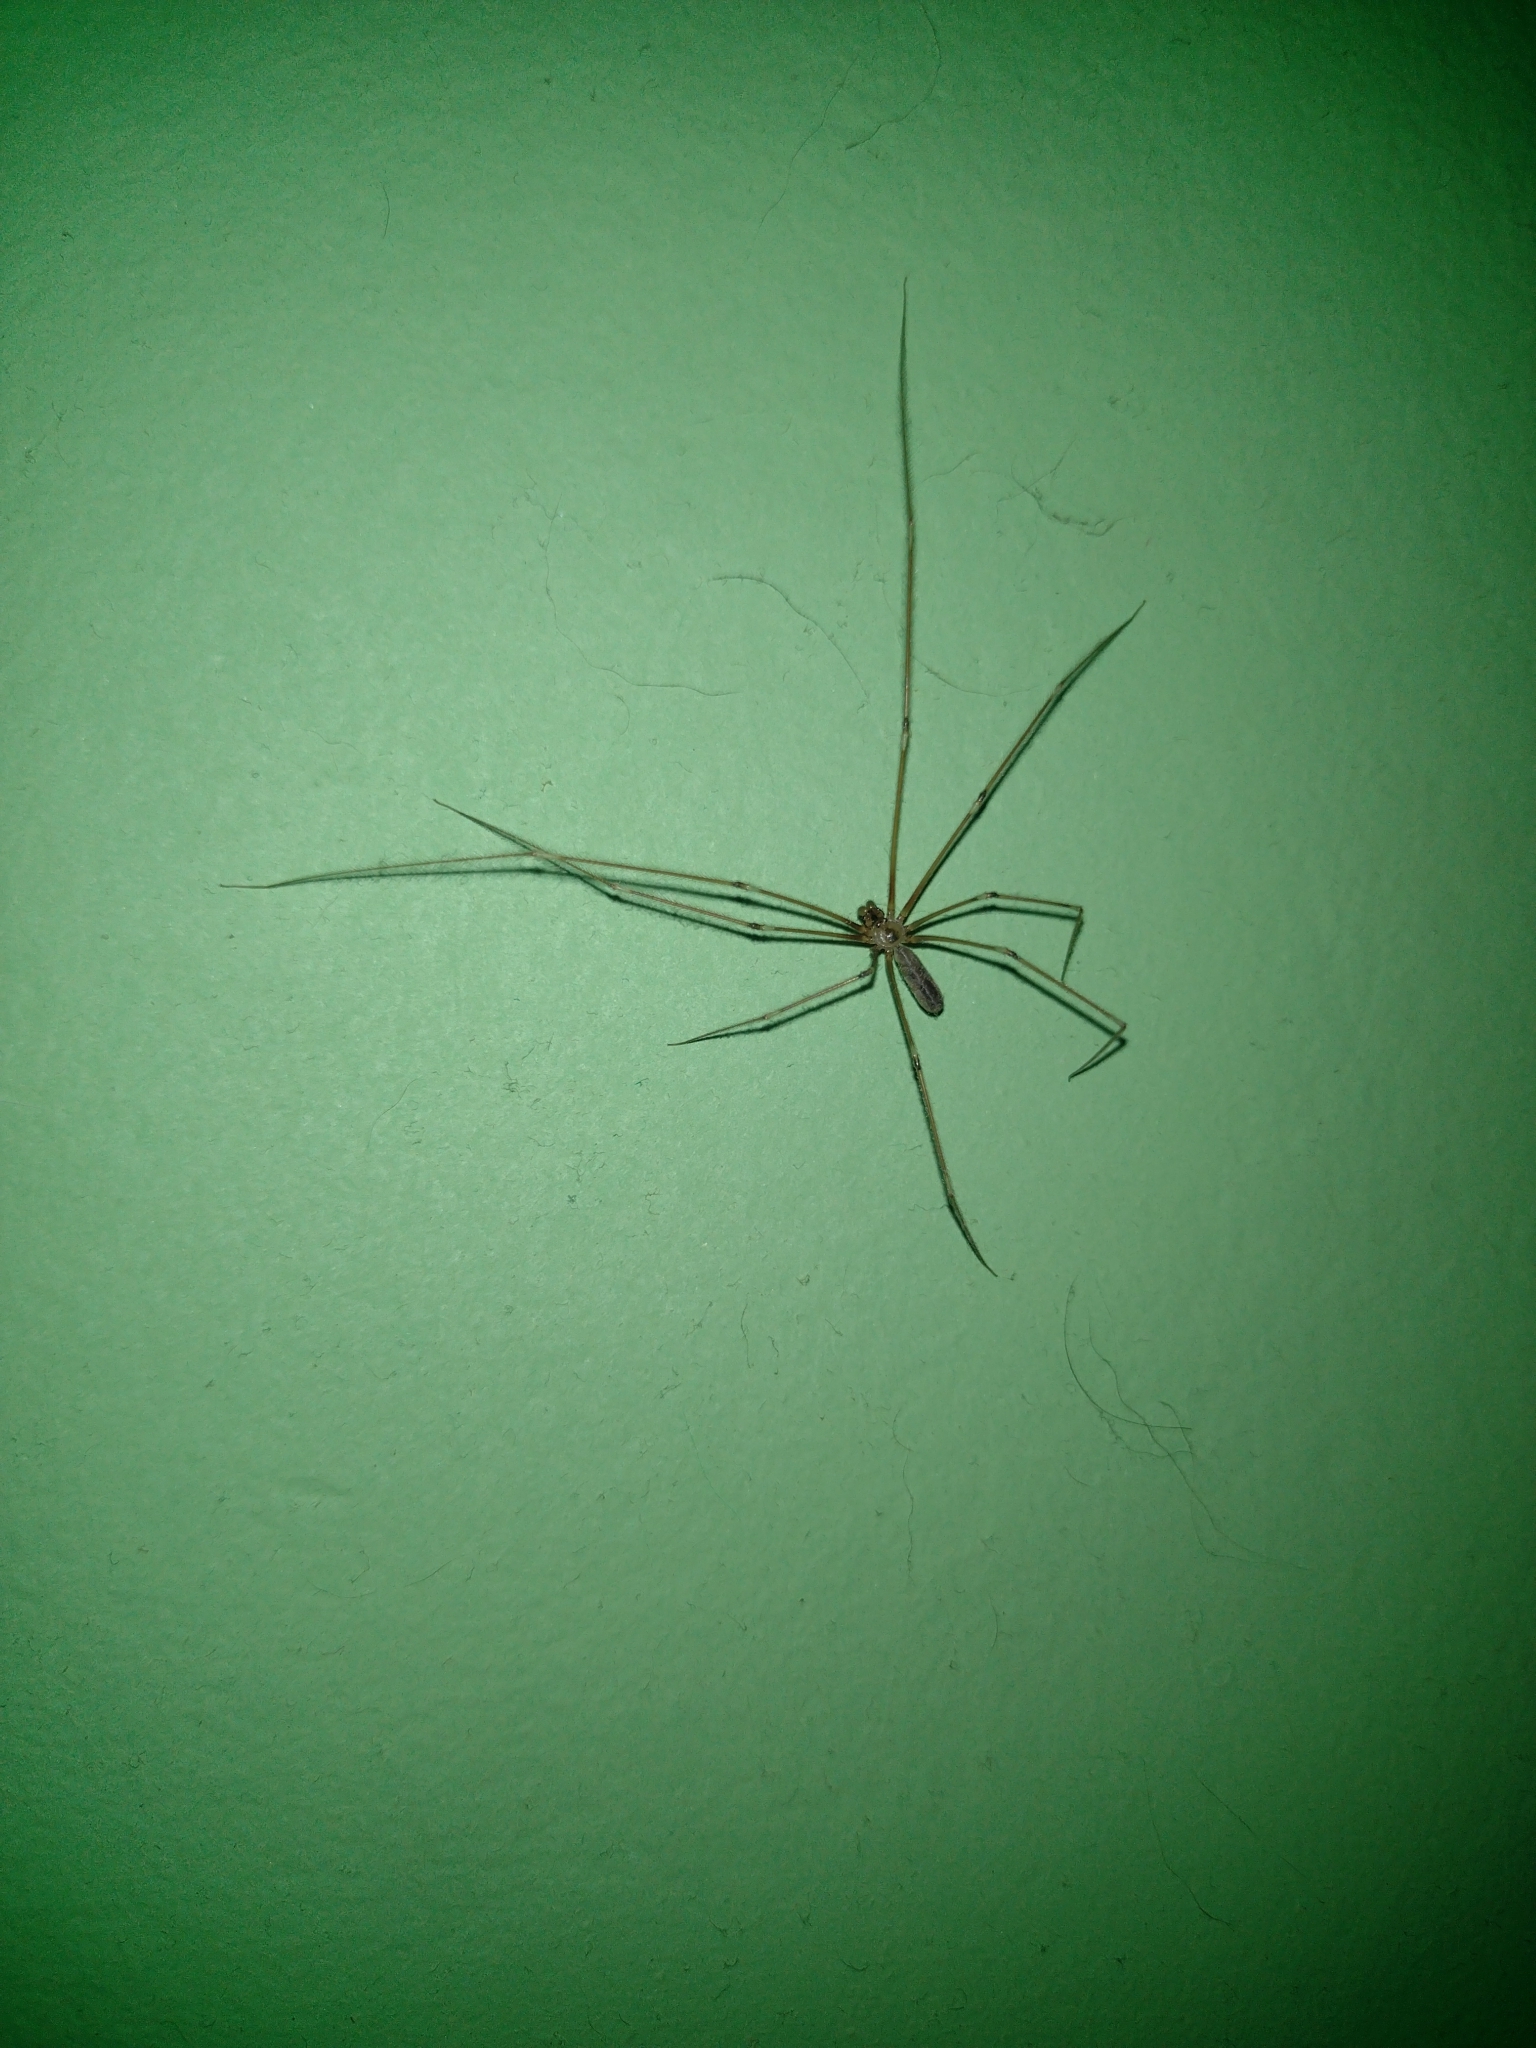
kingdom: Animalia
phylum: Arthropoda
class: Arachnida
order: Araneae
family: Pholcidae
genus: Pholcus
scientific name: Pholcus phalangioides
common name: Longbodied cellar spider
